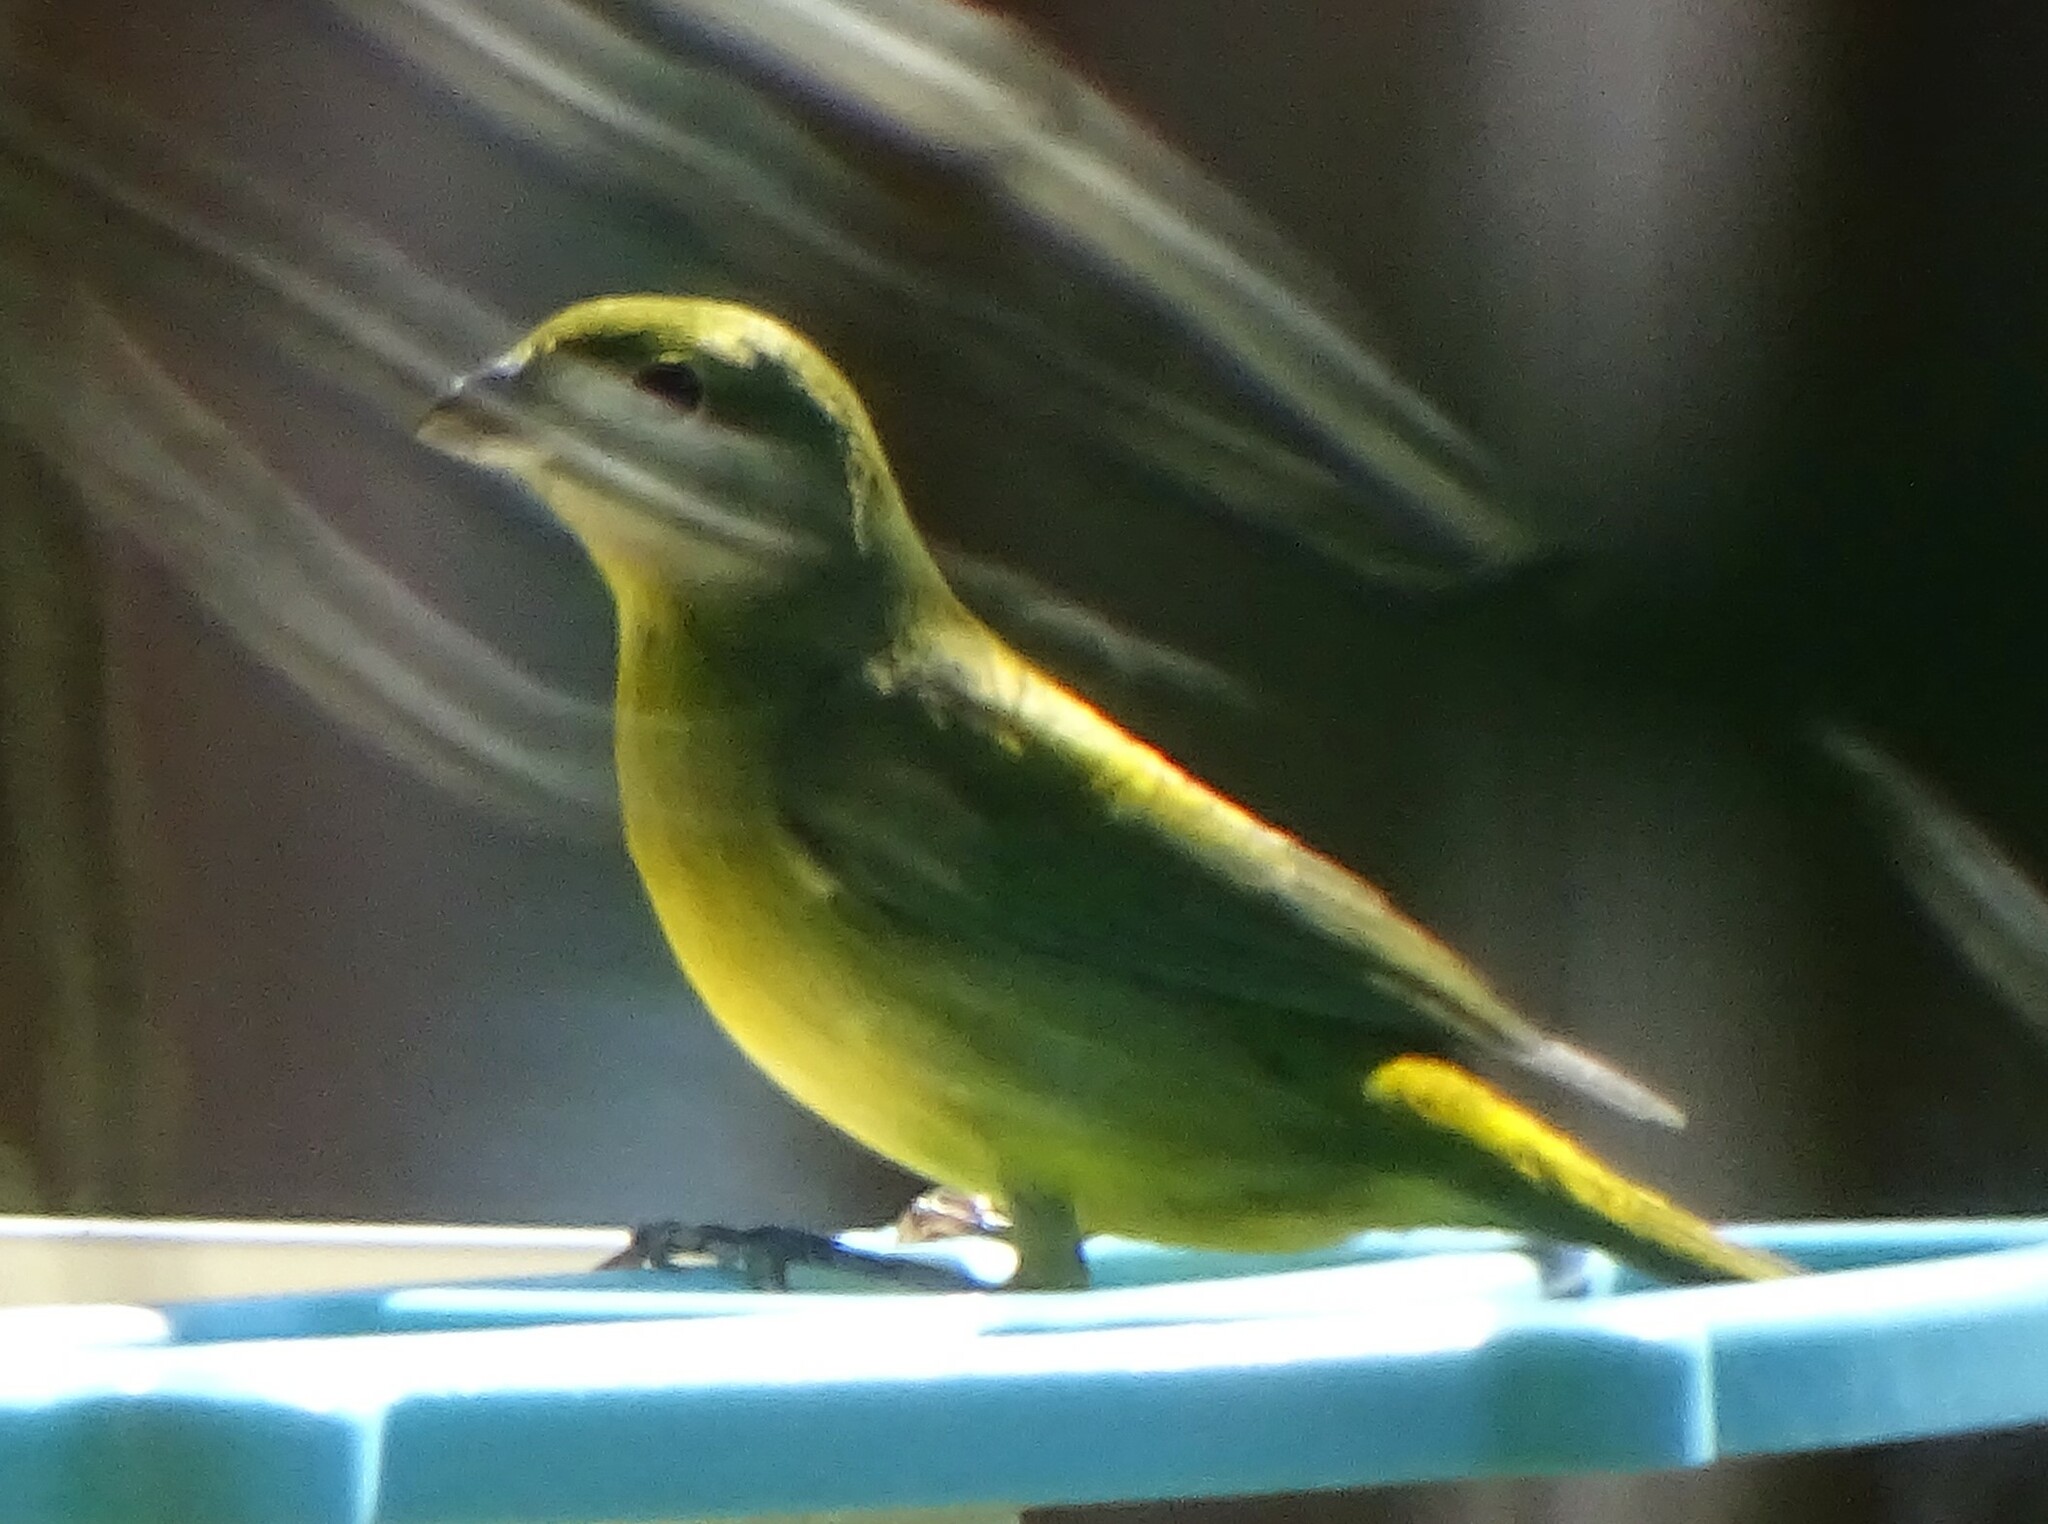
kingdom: Animalia
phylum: Chordata
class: Aves
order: Passeriformes
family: Cardinalidae
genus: Passerina
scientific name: Passerina ciris
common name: Painted bunting
